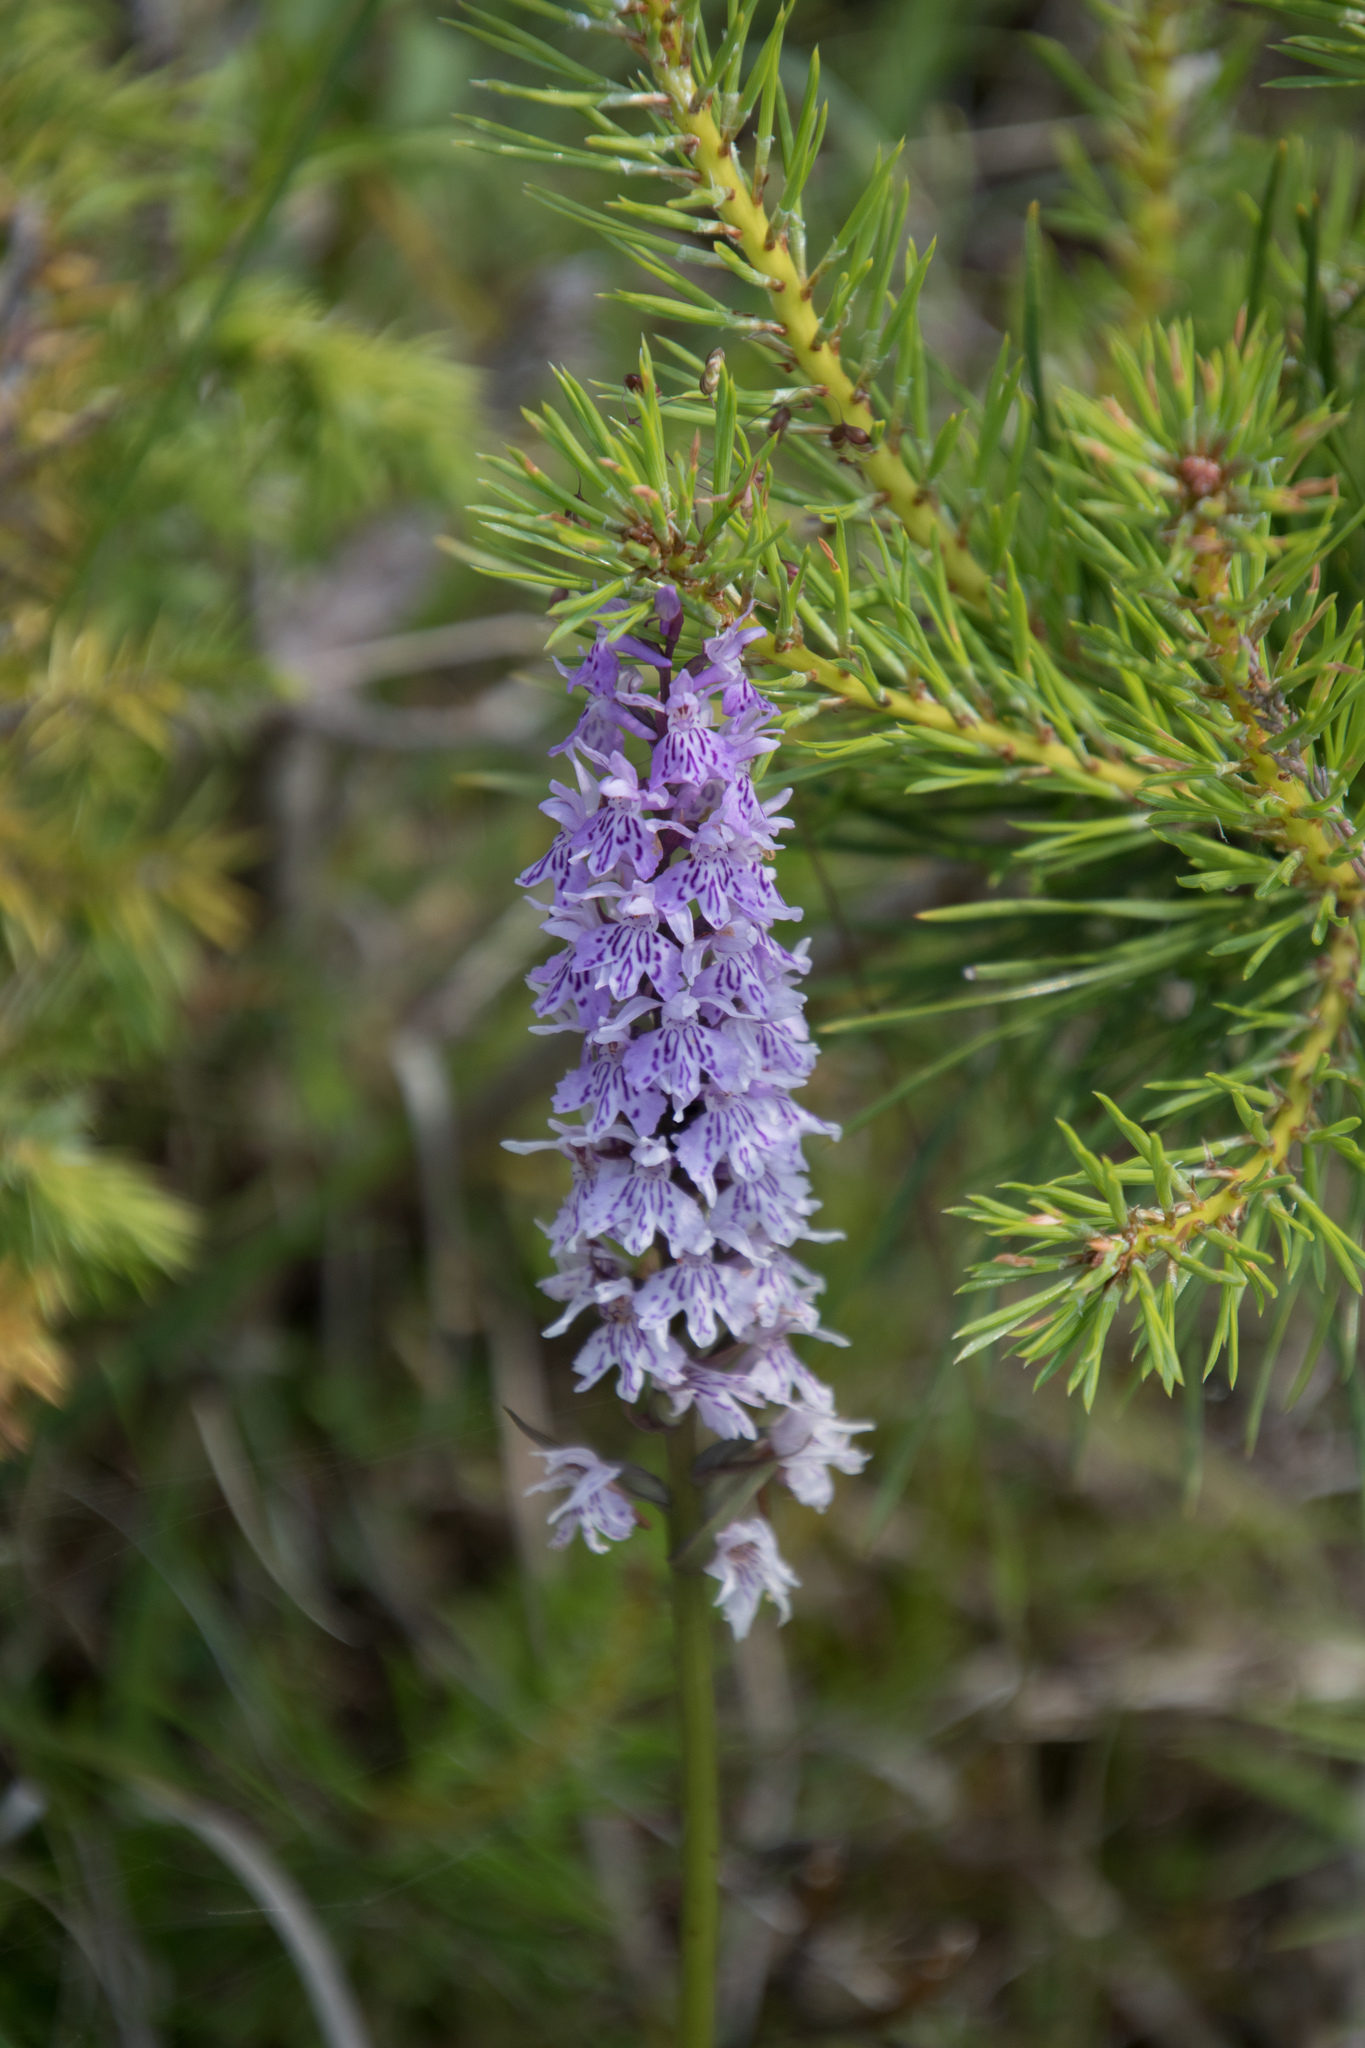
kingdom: Plantae
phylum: Tracheophyta
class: Liliopsida
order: Asparagales
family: Orchidaceae
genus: Dactylorhiza
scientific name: Dactylorhiza maculata
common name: Heath spotted-orchid
